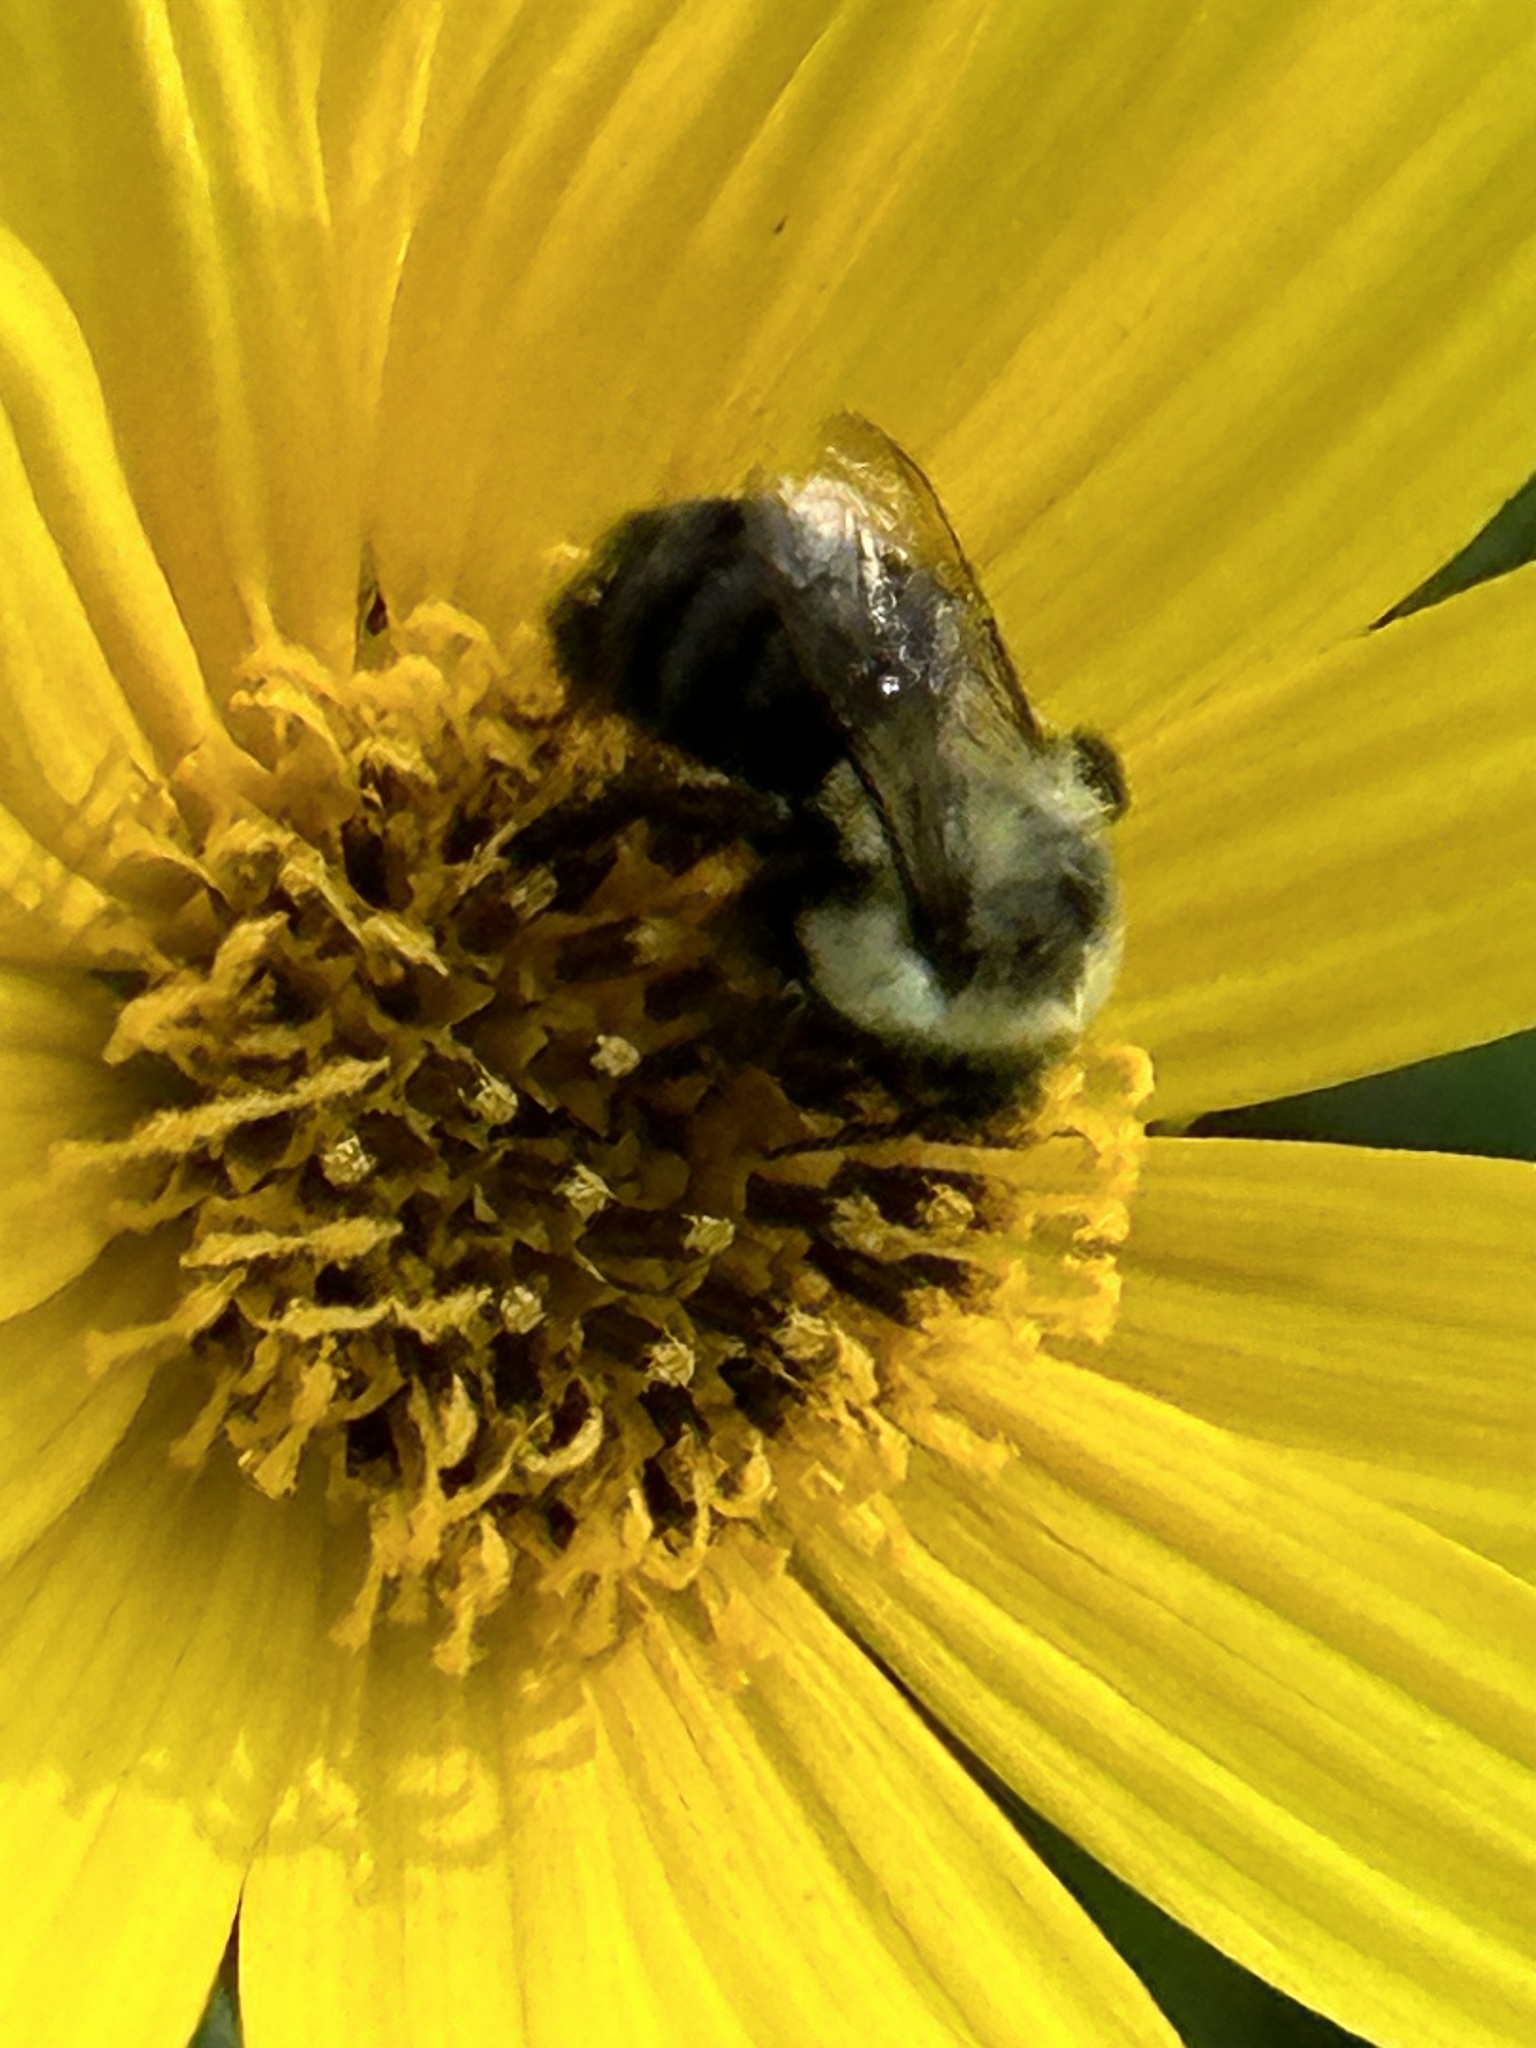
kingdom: Animalia
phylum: Arthropoda
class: Insecta
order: Hymenoptera
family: Apidae
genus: Bombus
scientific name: Bombus impatiens
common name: Common eastern bumble bee
